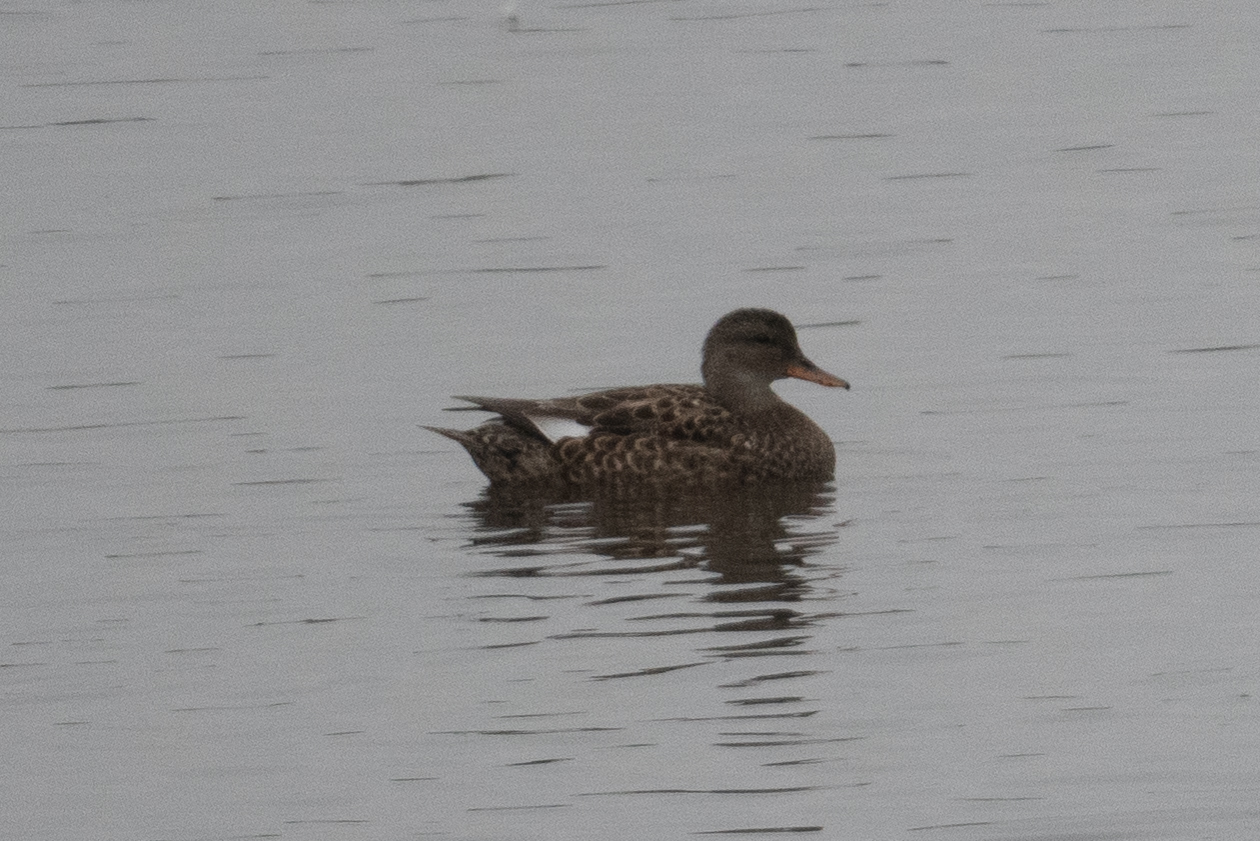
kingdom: Animalia
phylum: Chordata
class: Aves
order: Anseriformes
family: Anatidae
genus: Mareca
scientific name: Mareca strepera
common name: Gadwall
